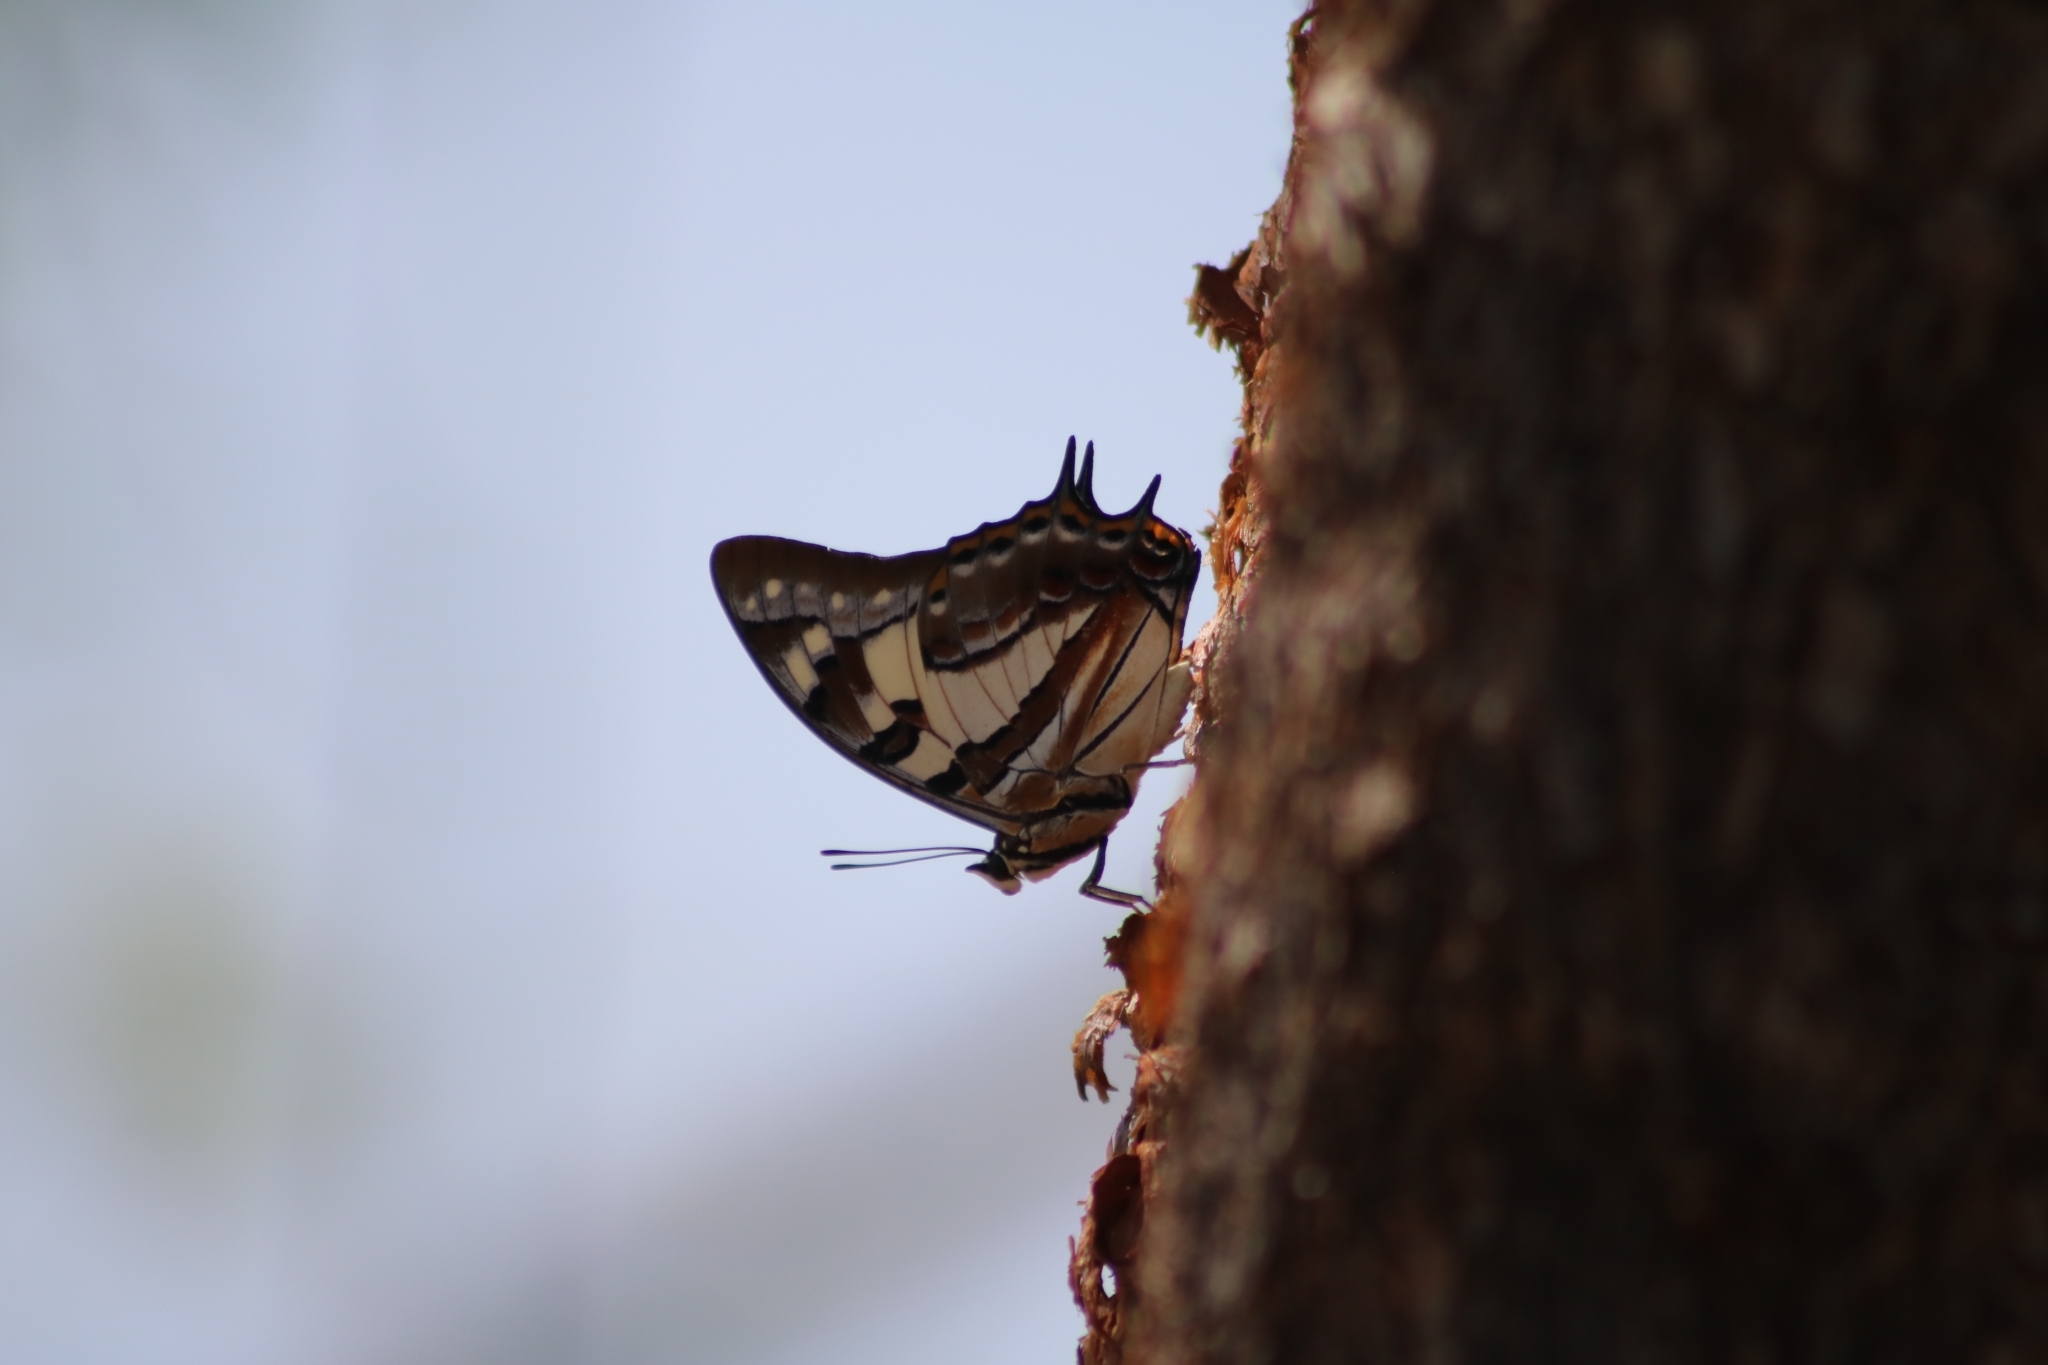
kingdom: Animalia
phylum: Arthropoda
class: Insecta
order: Lepidoptera
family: Nymphalidae
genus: Charaxes
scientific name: Charaxes
